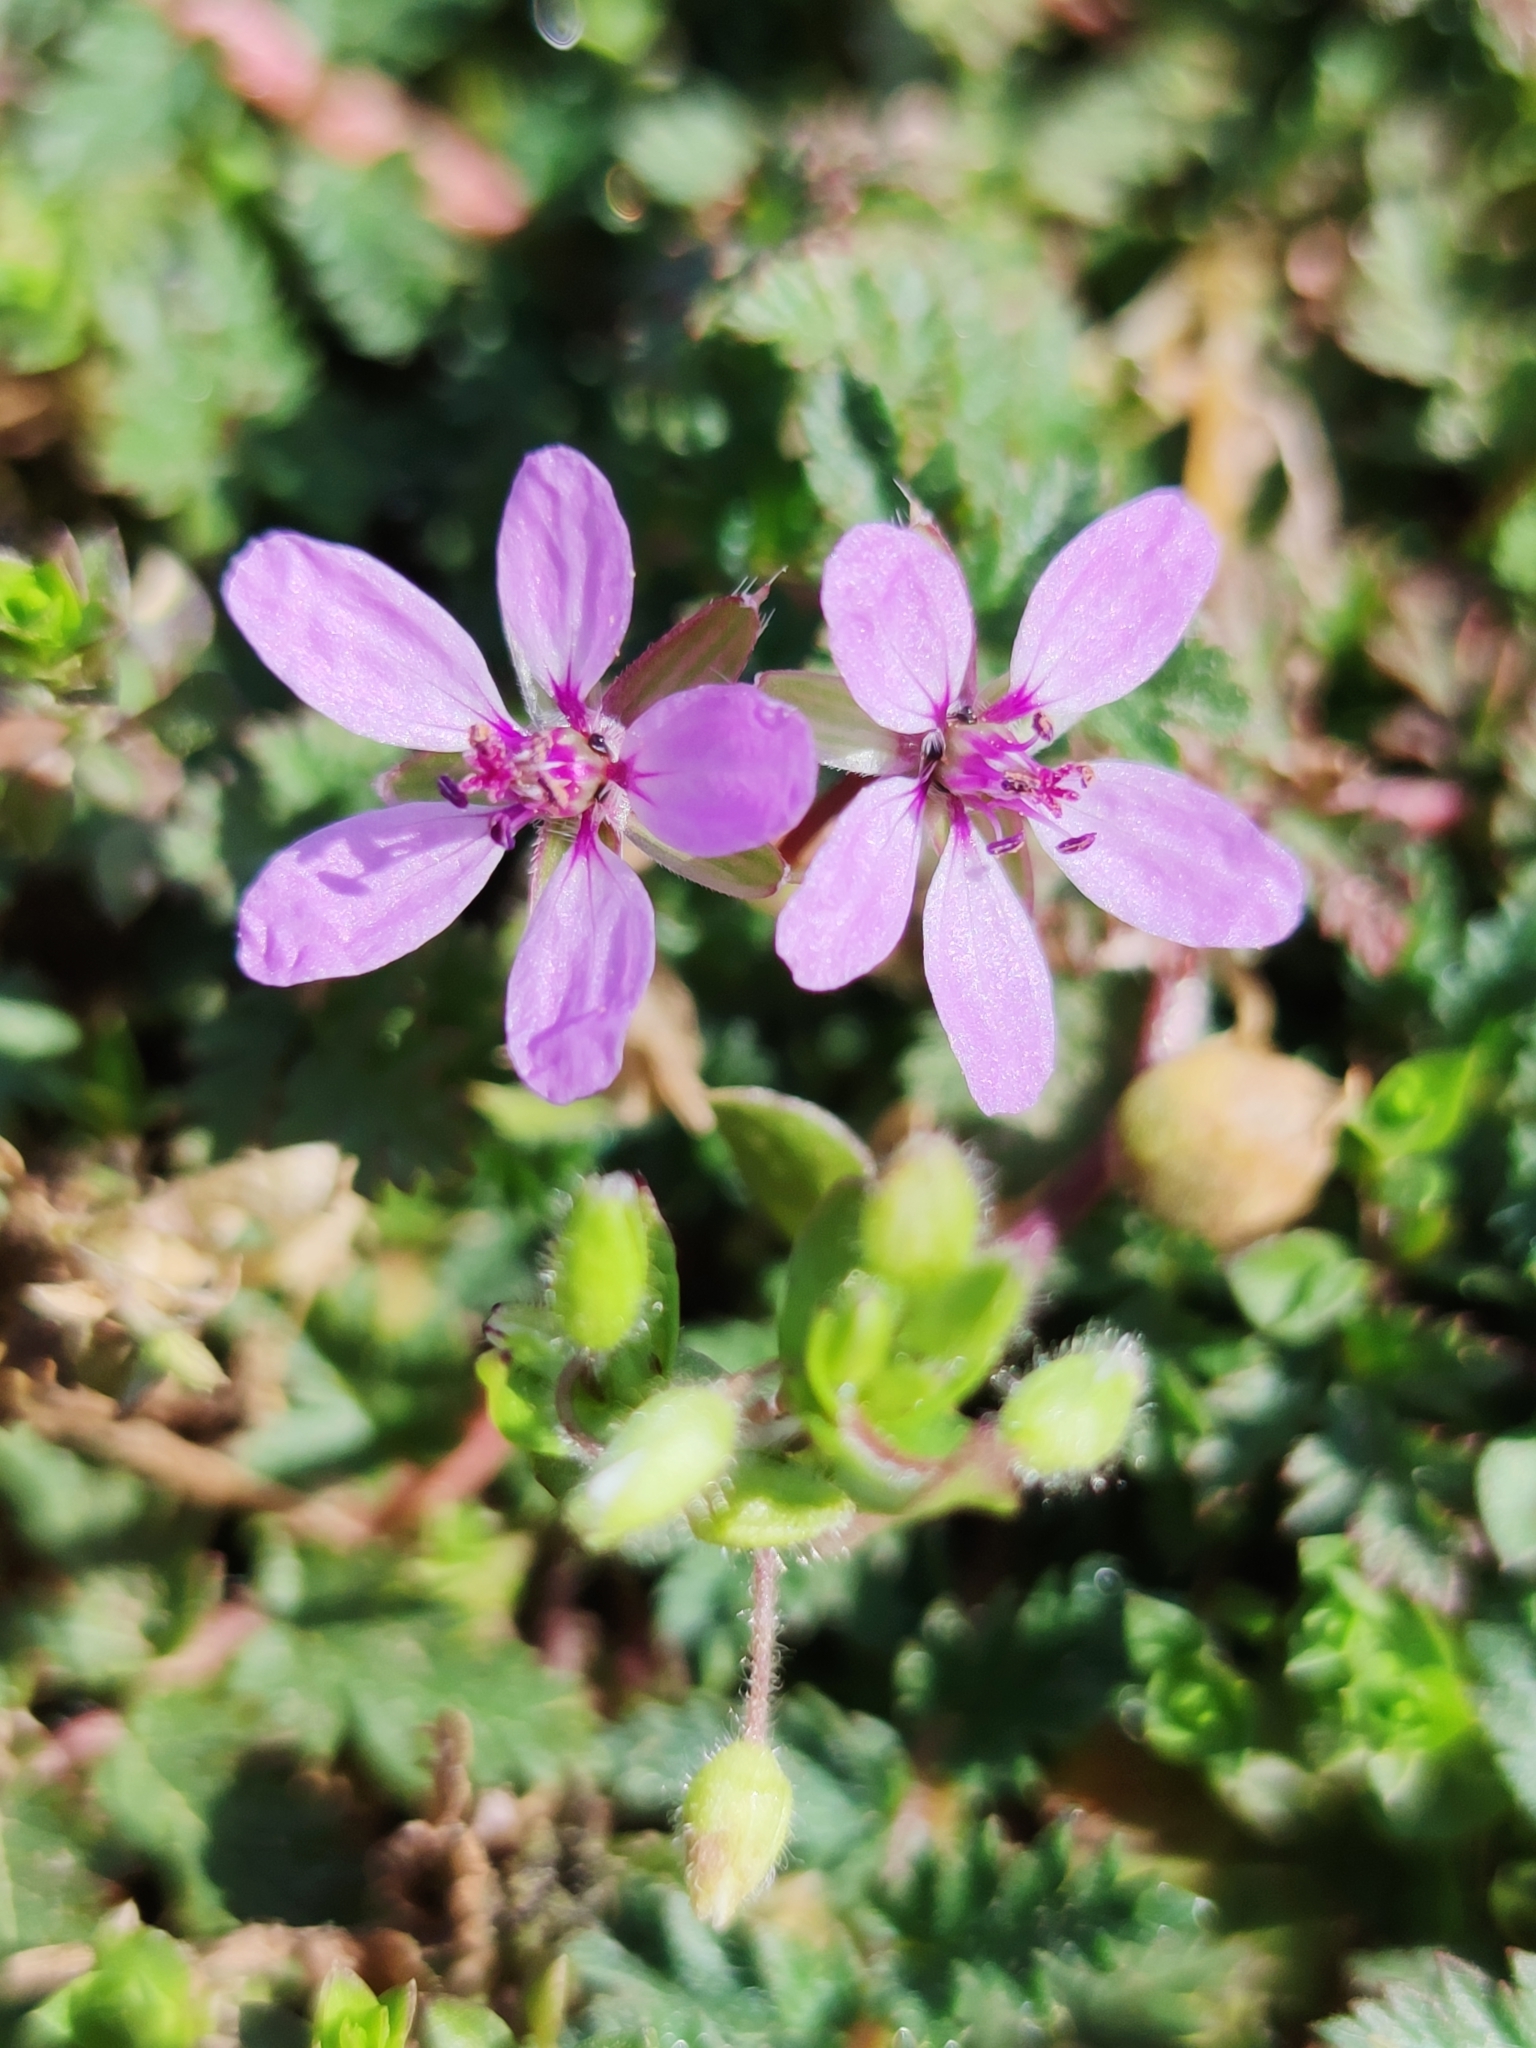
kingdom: Plantae
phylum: Tracheophyta
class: Magnoliopsida
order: Geraniales
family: Geraniaceae
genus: Erodium
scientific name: Erodium cicutarium
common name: Common stork's-bill
